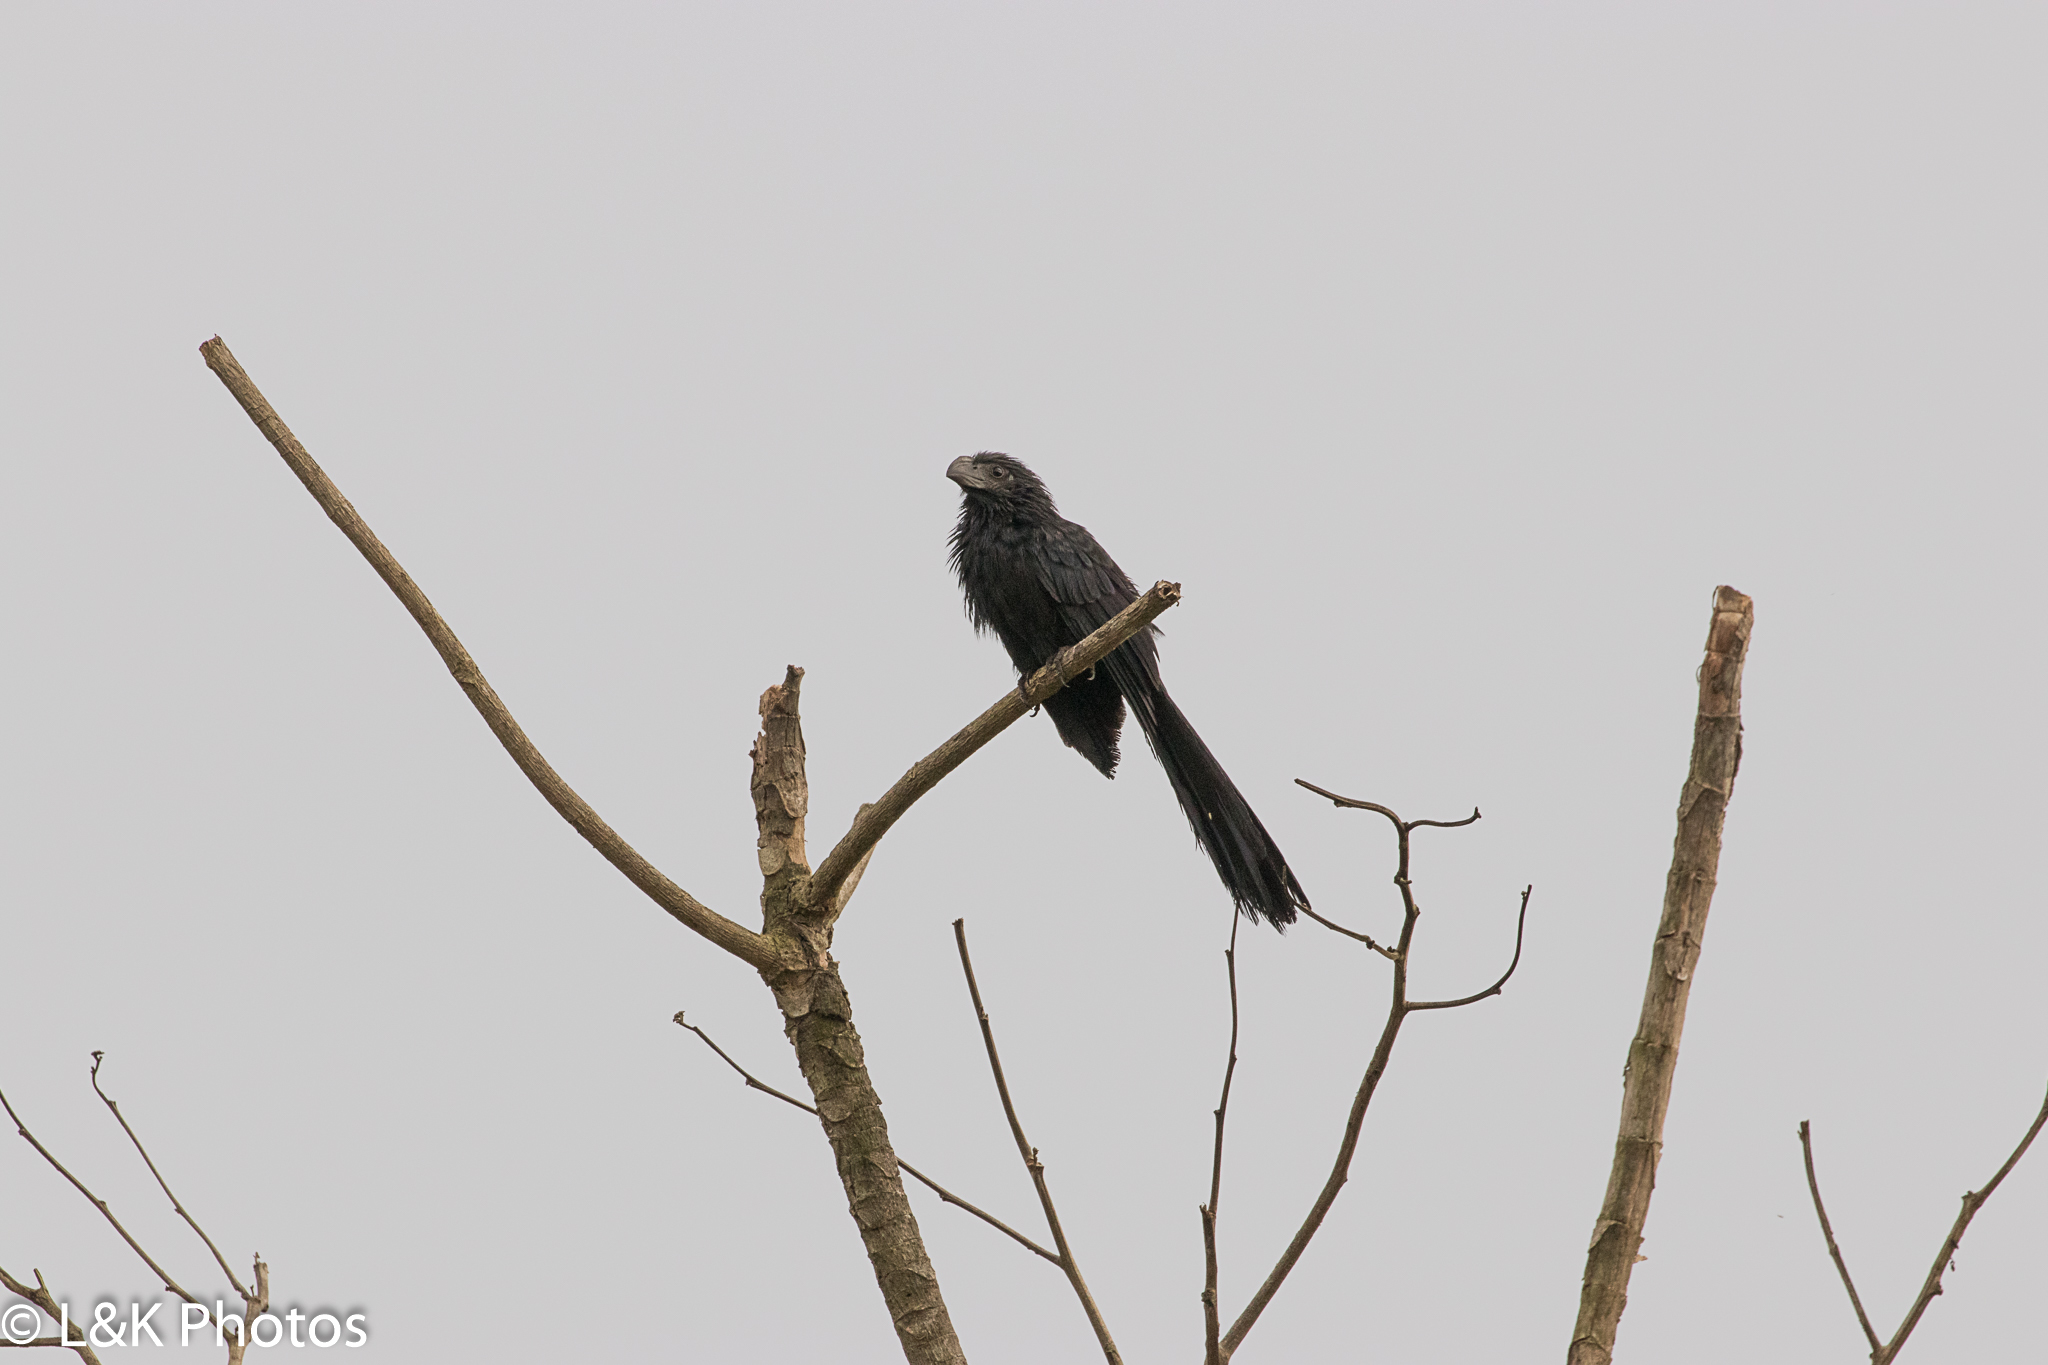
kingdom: Animalia
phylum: Chordata
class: Aves
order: Cuculiformes
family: Cuculidae
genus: Crotophaga
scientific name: Crotophaga sulcirostris
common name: Groove-billed ani
